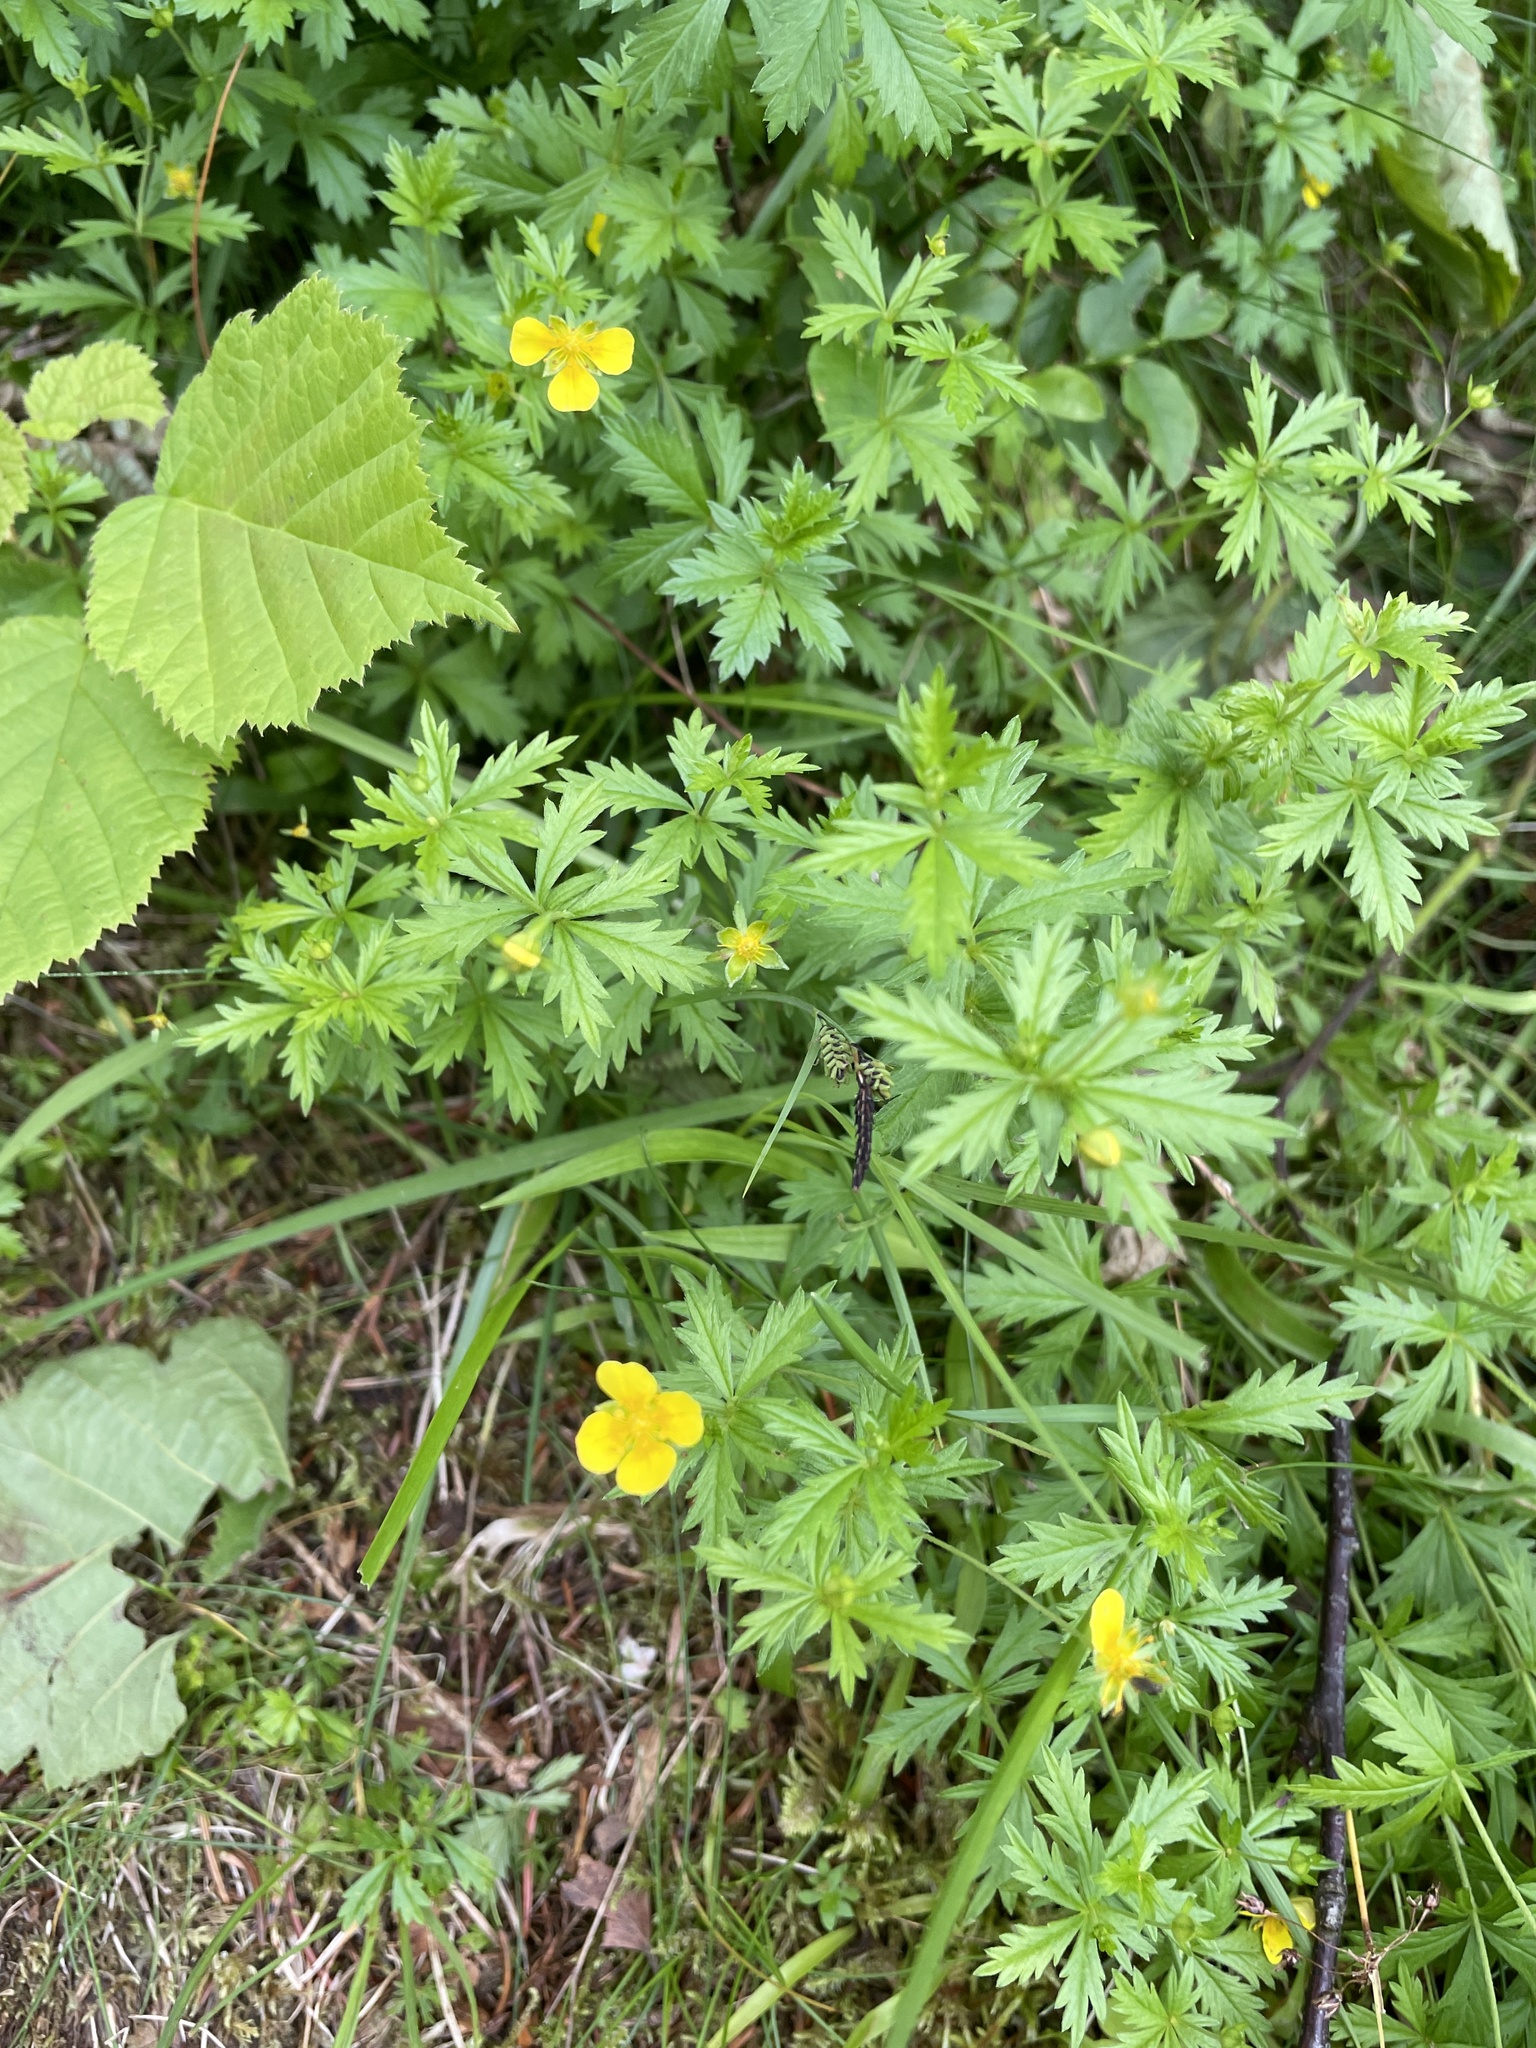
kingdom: Plantae
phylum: Tracheophyta
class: Magnoliopsida
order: Rosales
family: Rosaceae
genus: Potentilla
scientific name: Potentilla erecta
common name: Tormentil
